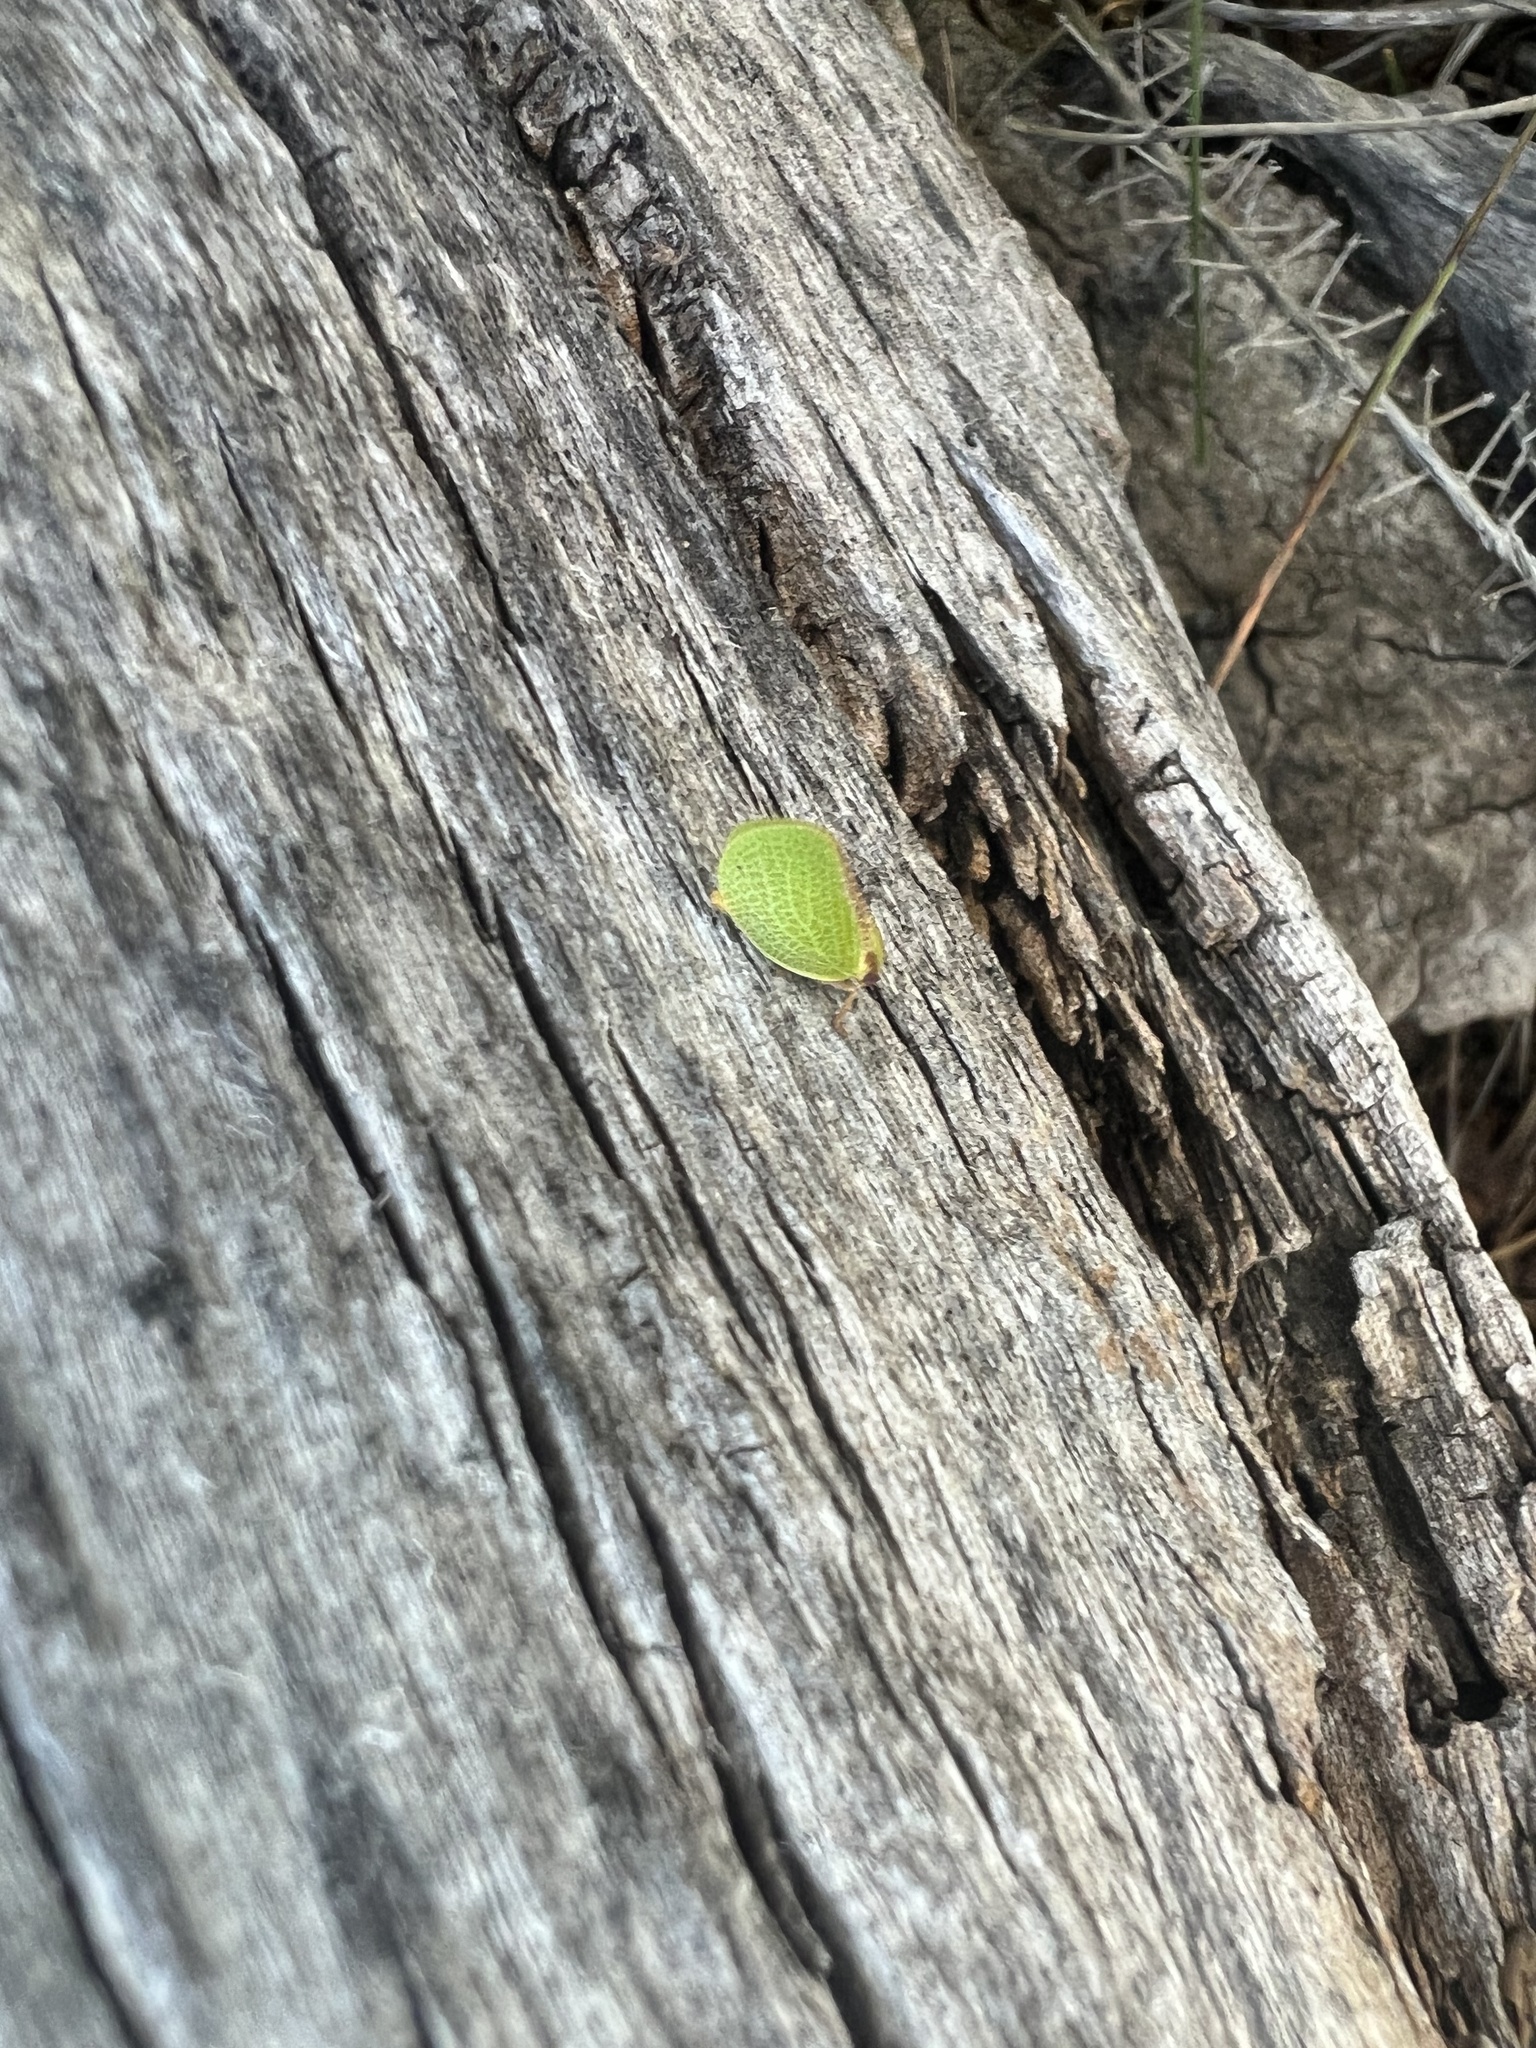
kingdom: Animalia
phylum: Arthropoda
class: Insecta
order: Hemiptera
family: Acanaloniidae
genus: Acanalonia
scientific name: Acanalonia bivittata
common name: Two-striped planthopper
